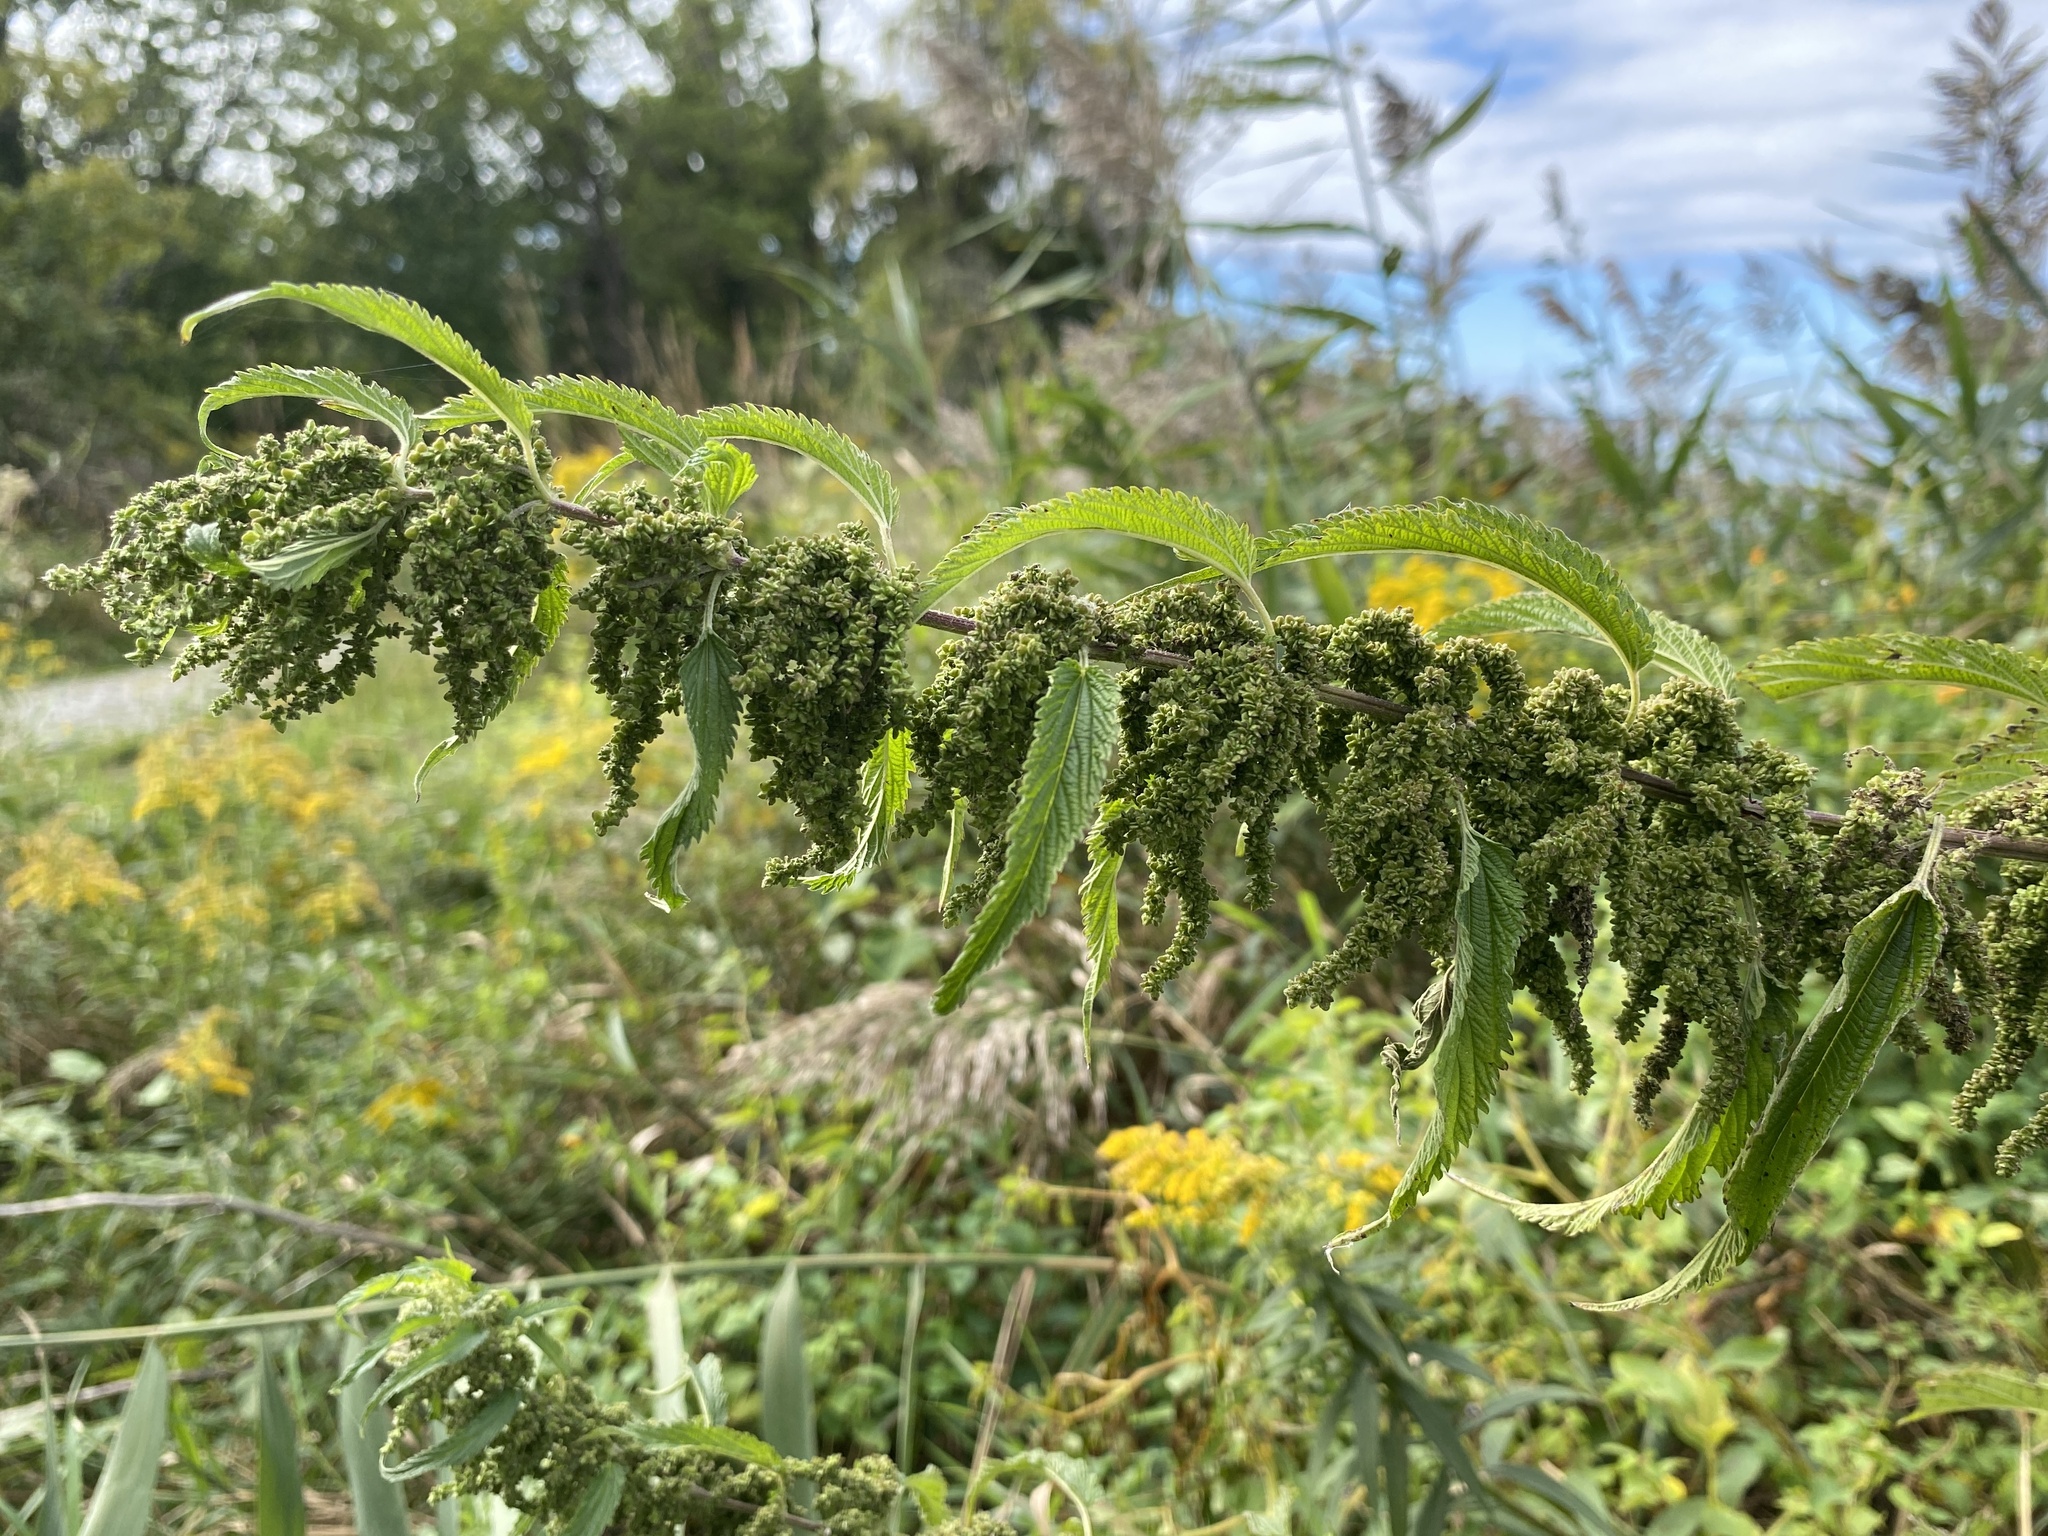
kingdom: Plantae
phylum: Tracheophyta
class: Magnoliopsida
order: Rosales
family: Urticaceae
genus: Urtica
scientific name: Urtica gracilis
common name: Slender stinging nettle
